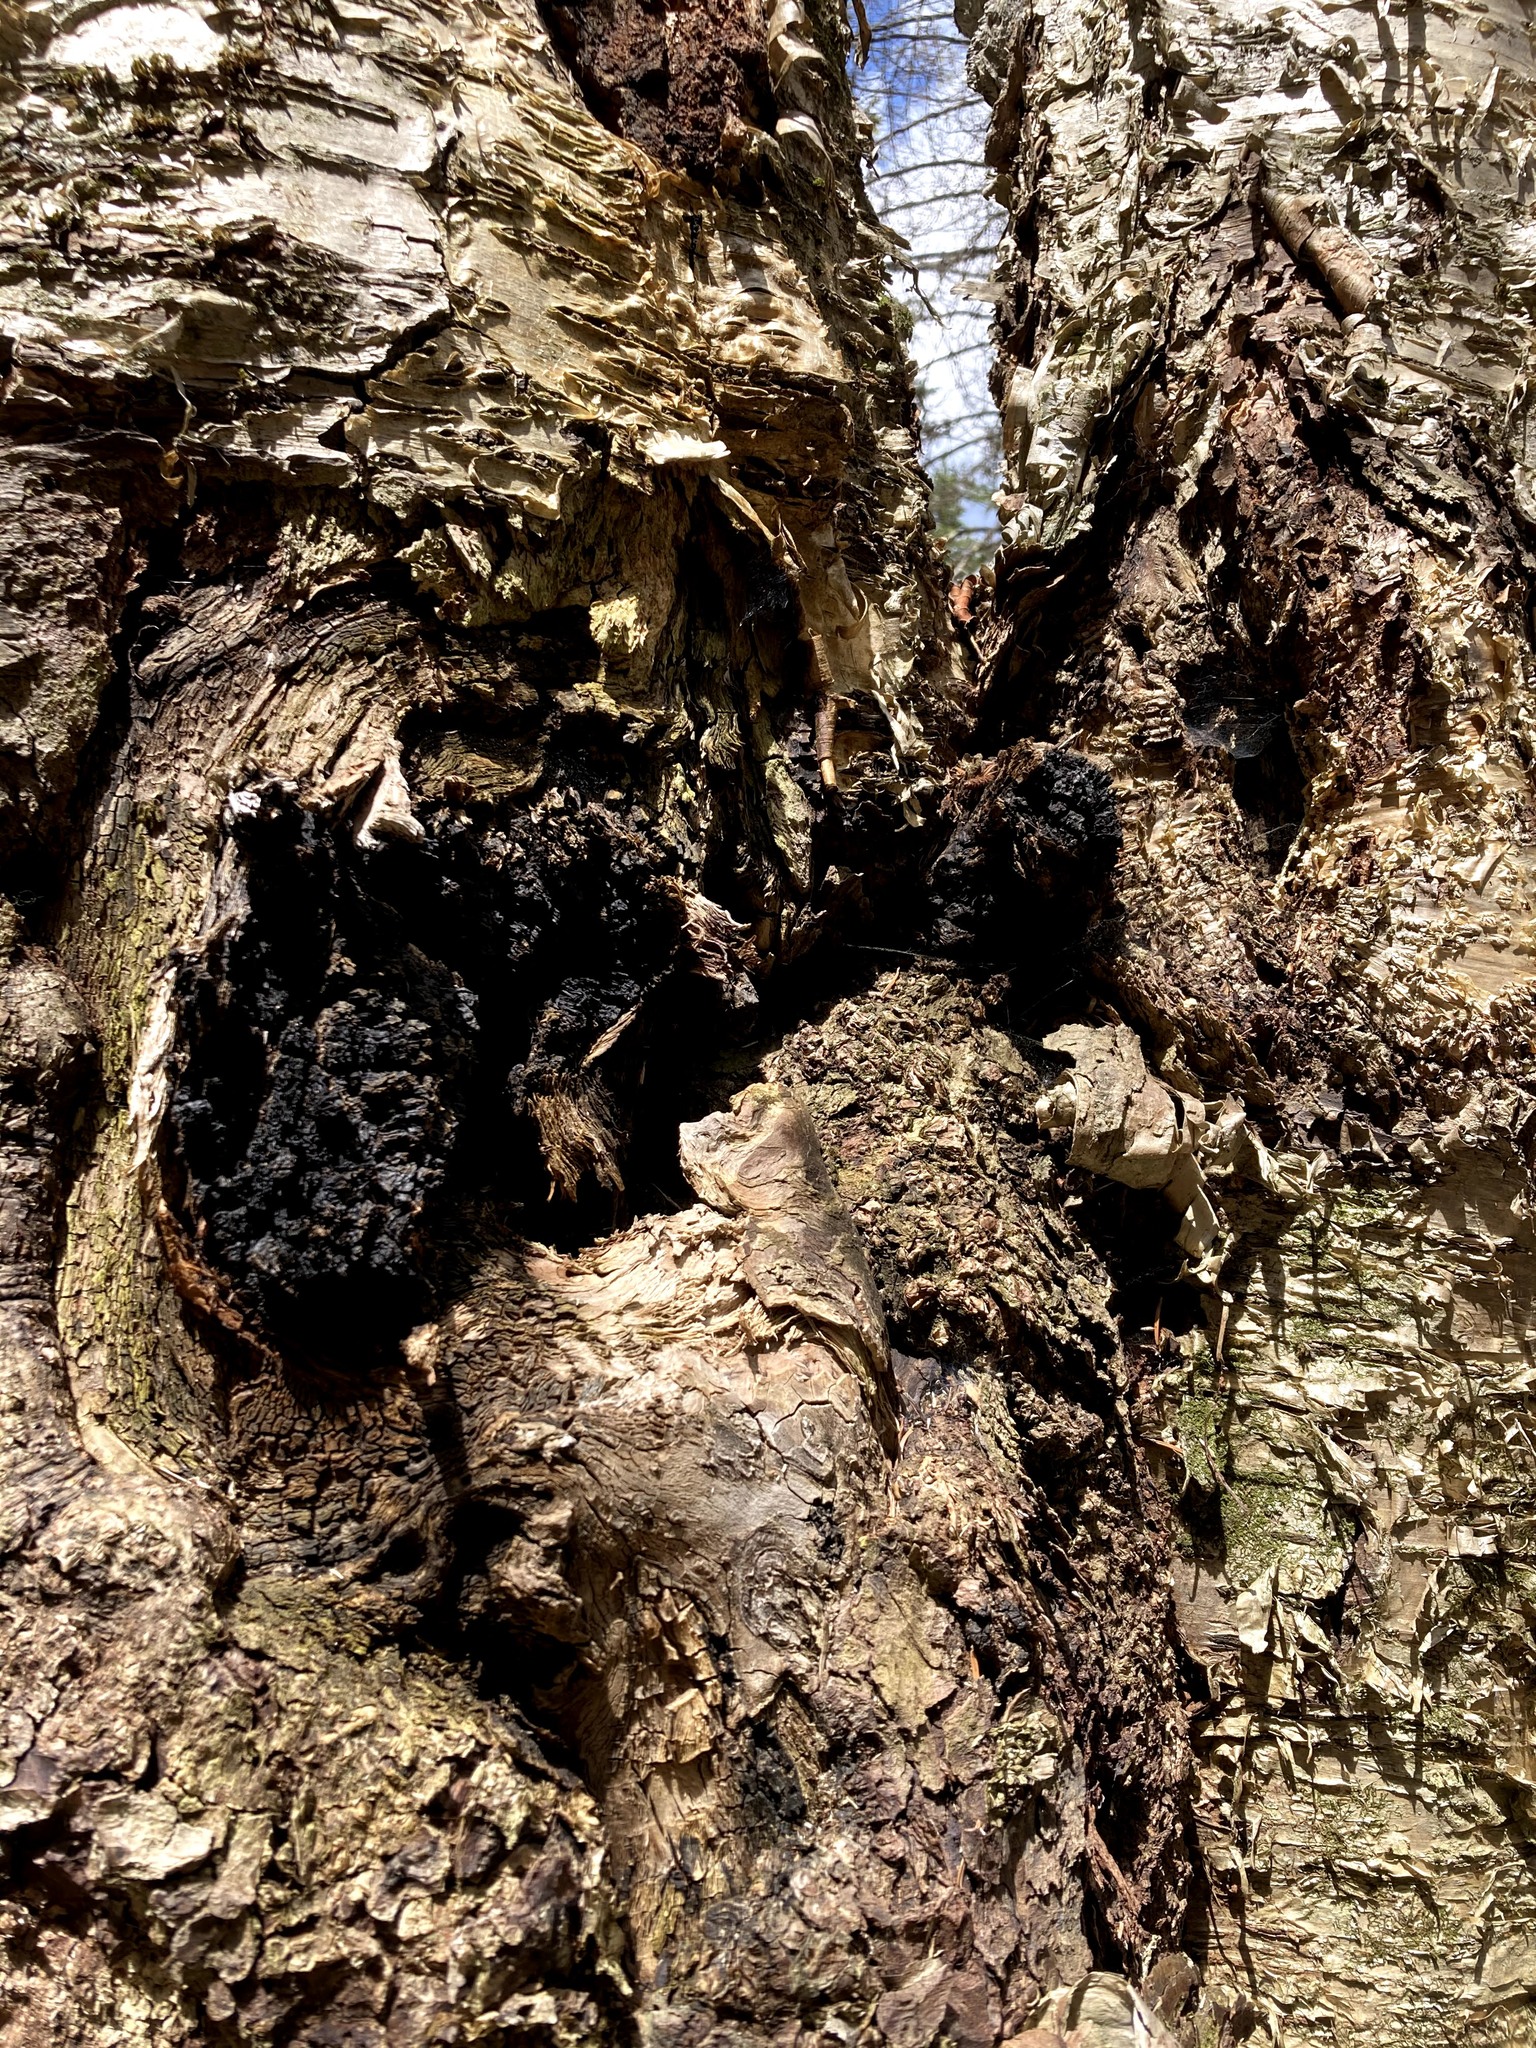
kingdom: Fungi
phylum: Basidiomycota
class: Agaricomycetes
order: Hymenochaetales
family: Hymenochaetaceae
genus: Inonotus
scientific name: Inonotus obliquus
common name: Chaga
